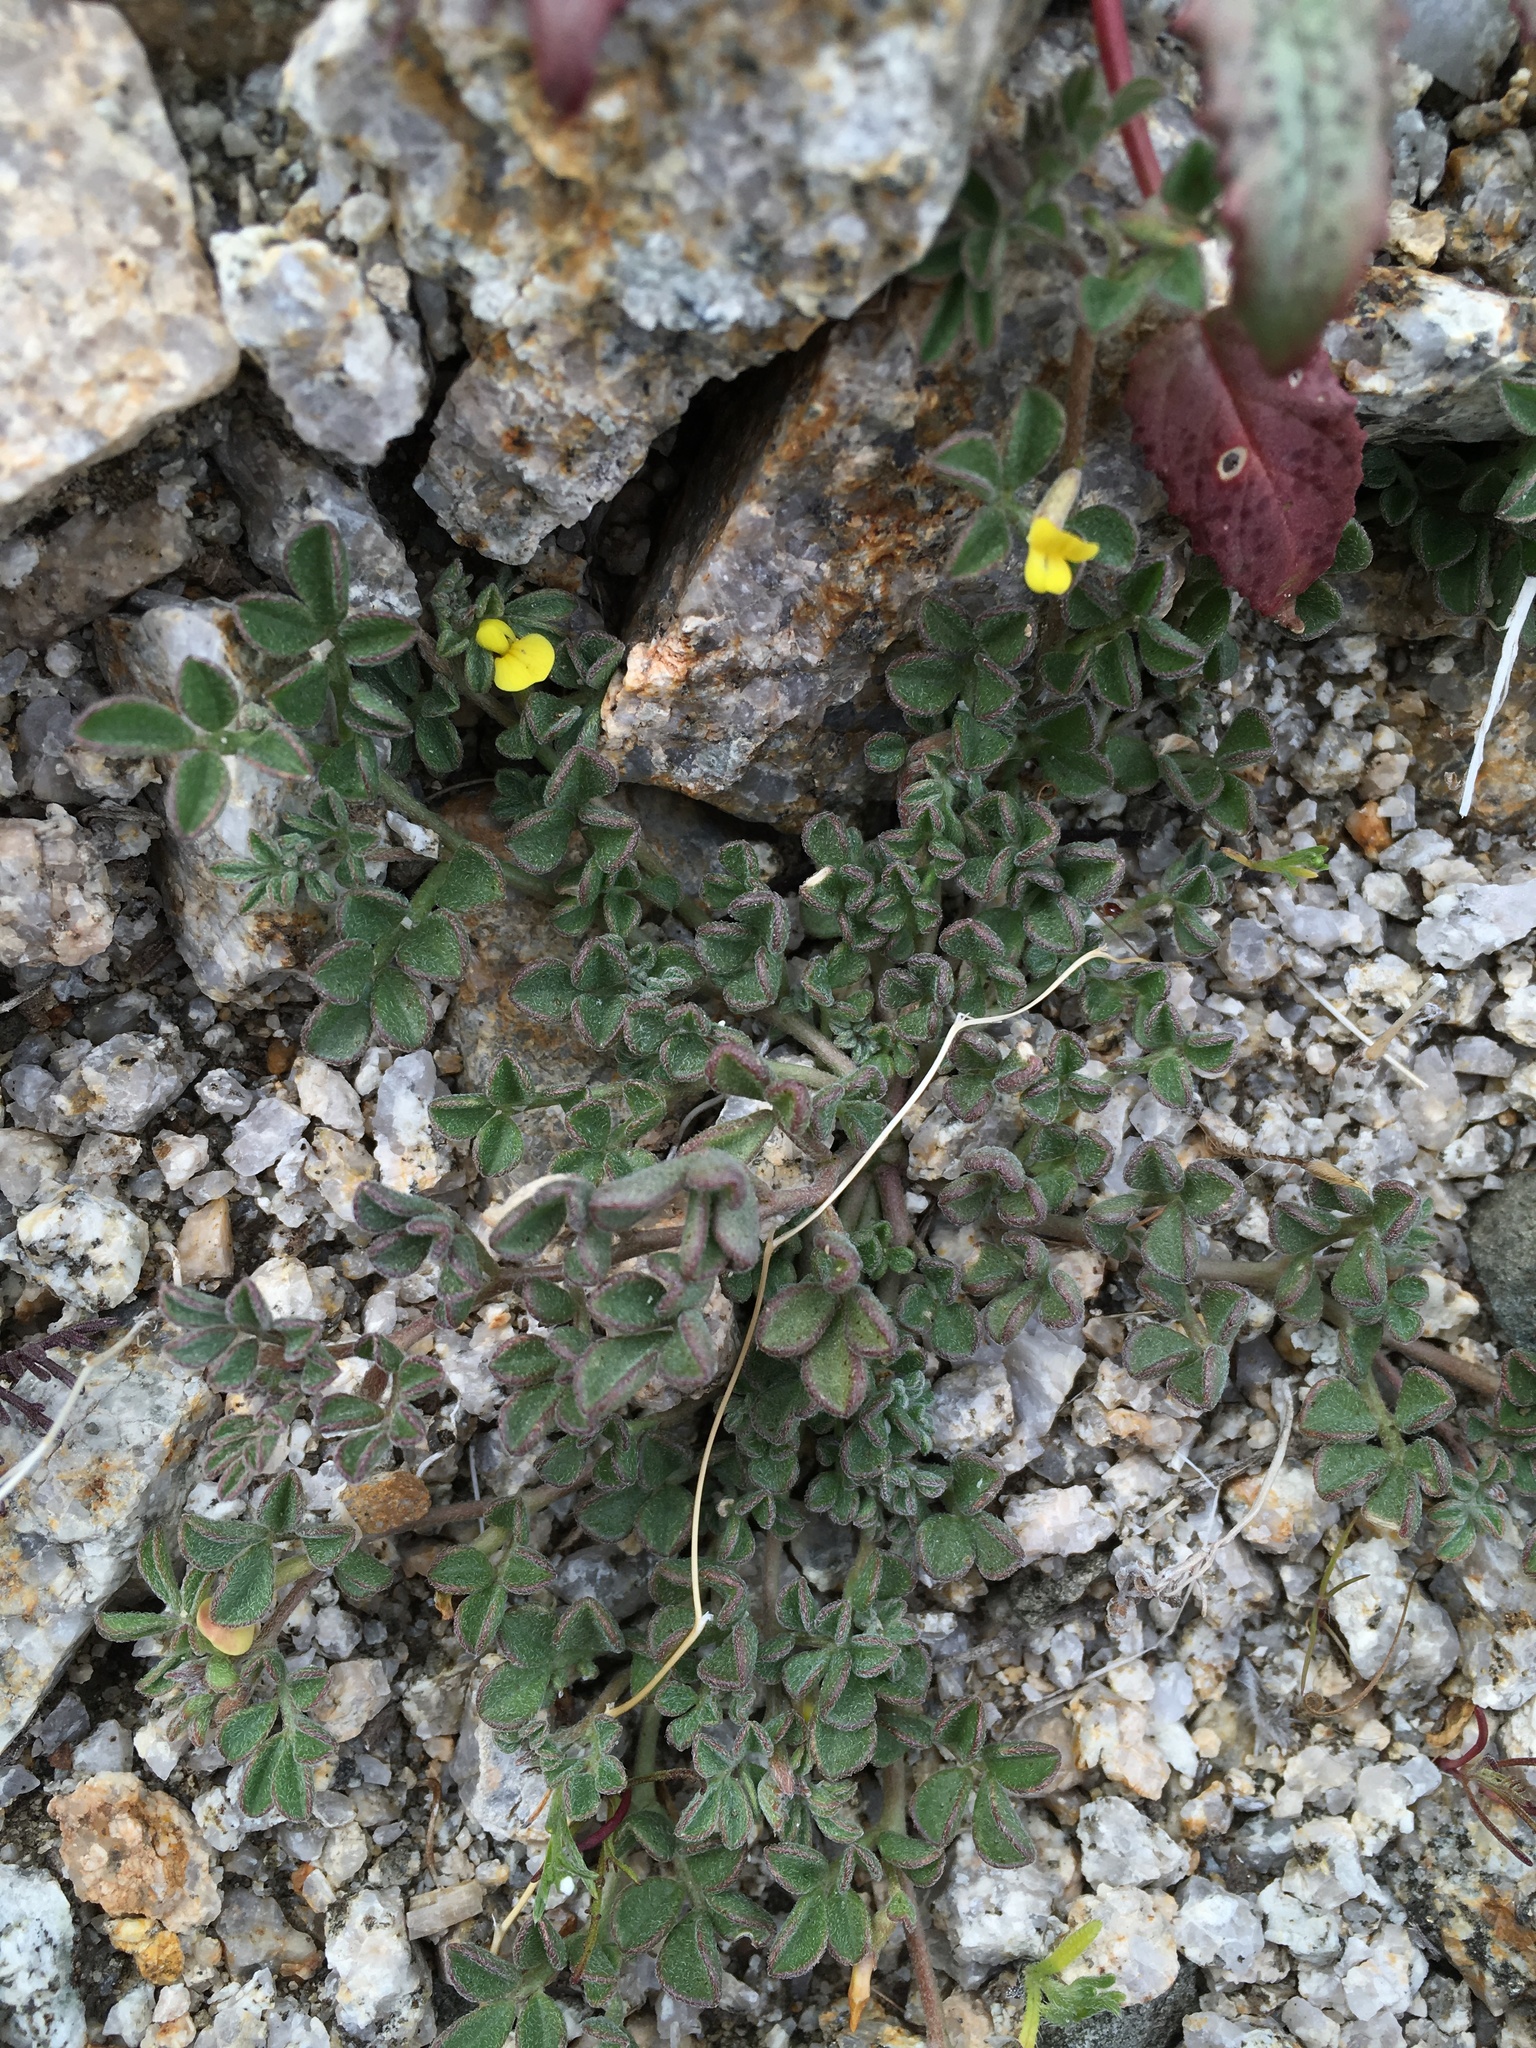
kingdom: Plantae
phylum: Tracheophyta
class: Magnoliopsida
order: Fabales
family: Fabaceae
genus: Acmispon
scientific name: Acmispon strigosus
